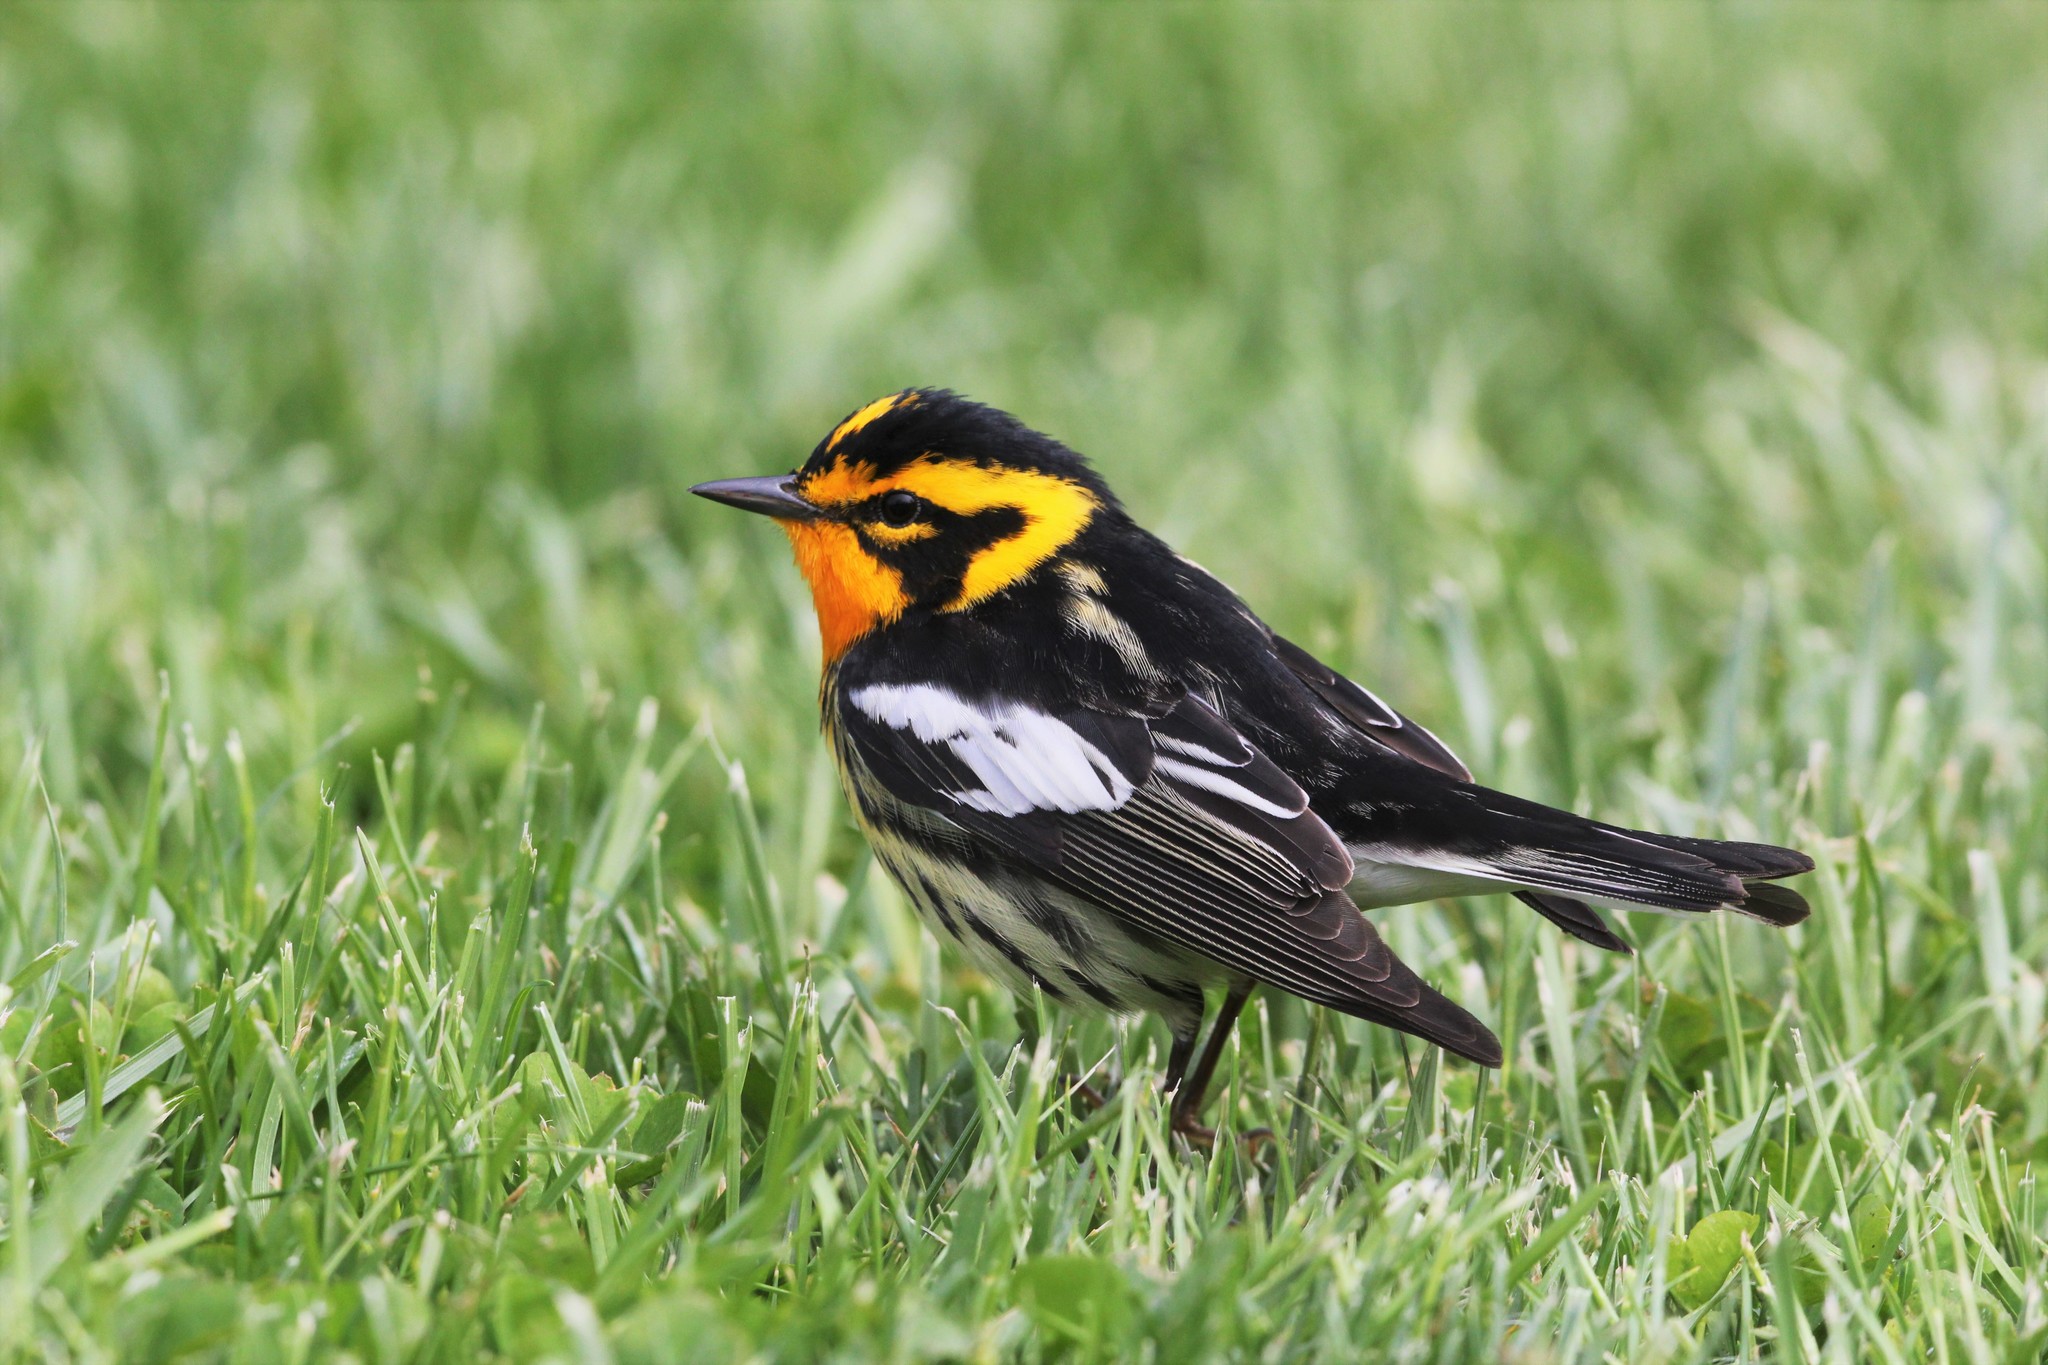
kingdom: Animalia
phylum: Chordata
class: Aves
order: Passeriformes
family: Parulidae
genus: Setophaga
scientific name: Setophaga fusca
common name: Blackburnian warbler
